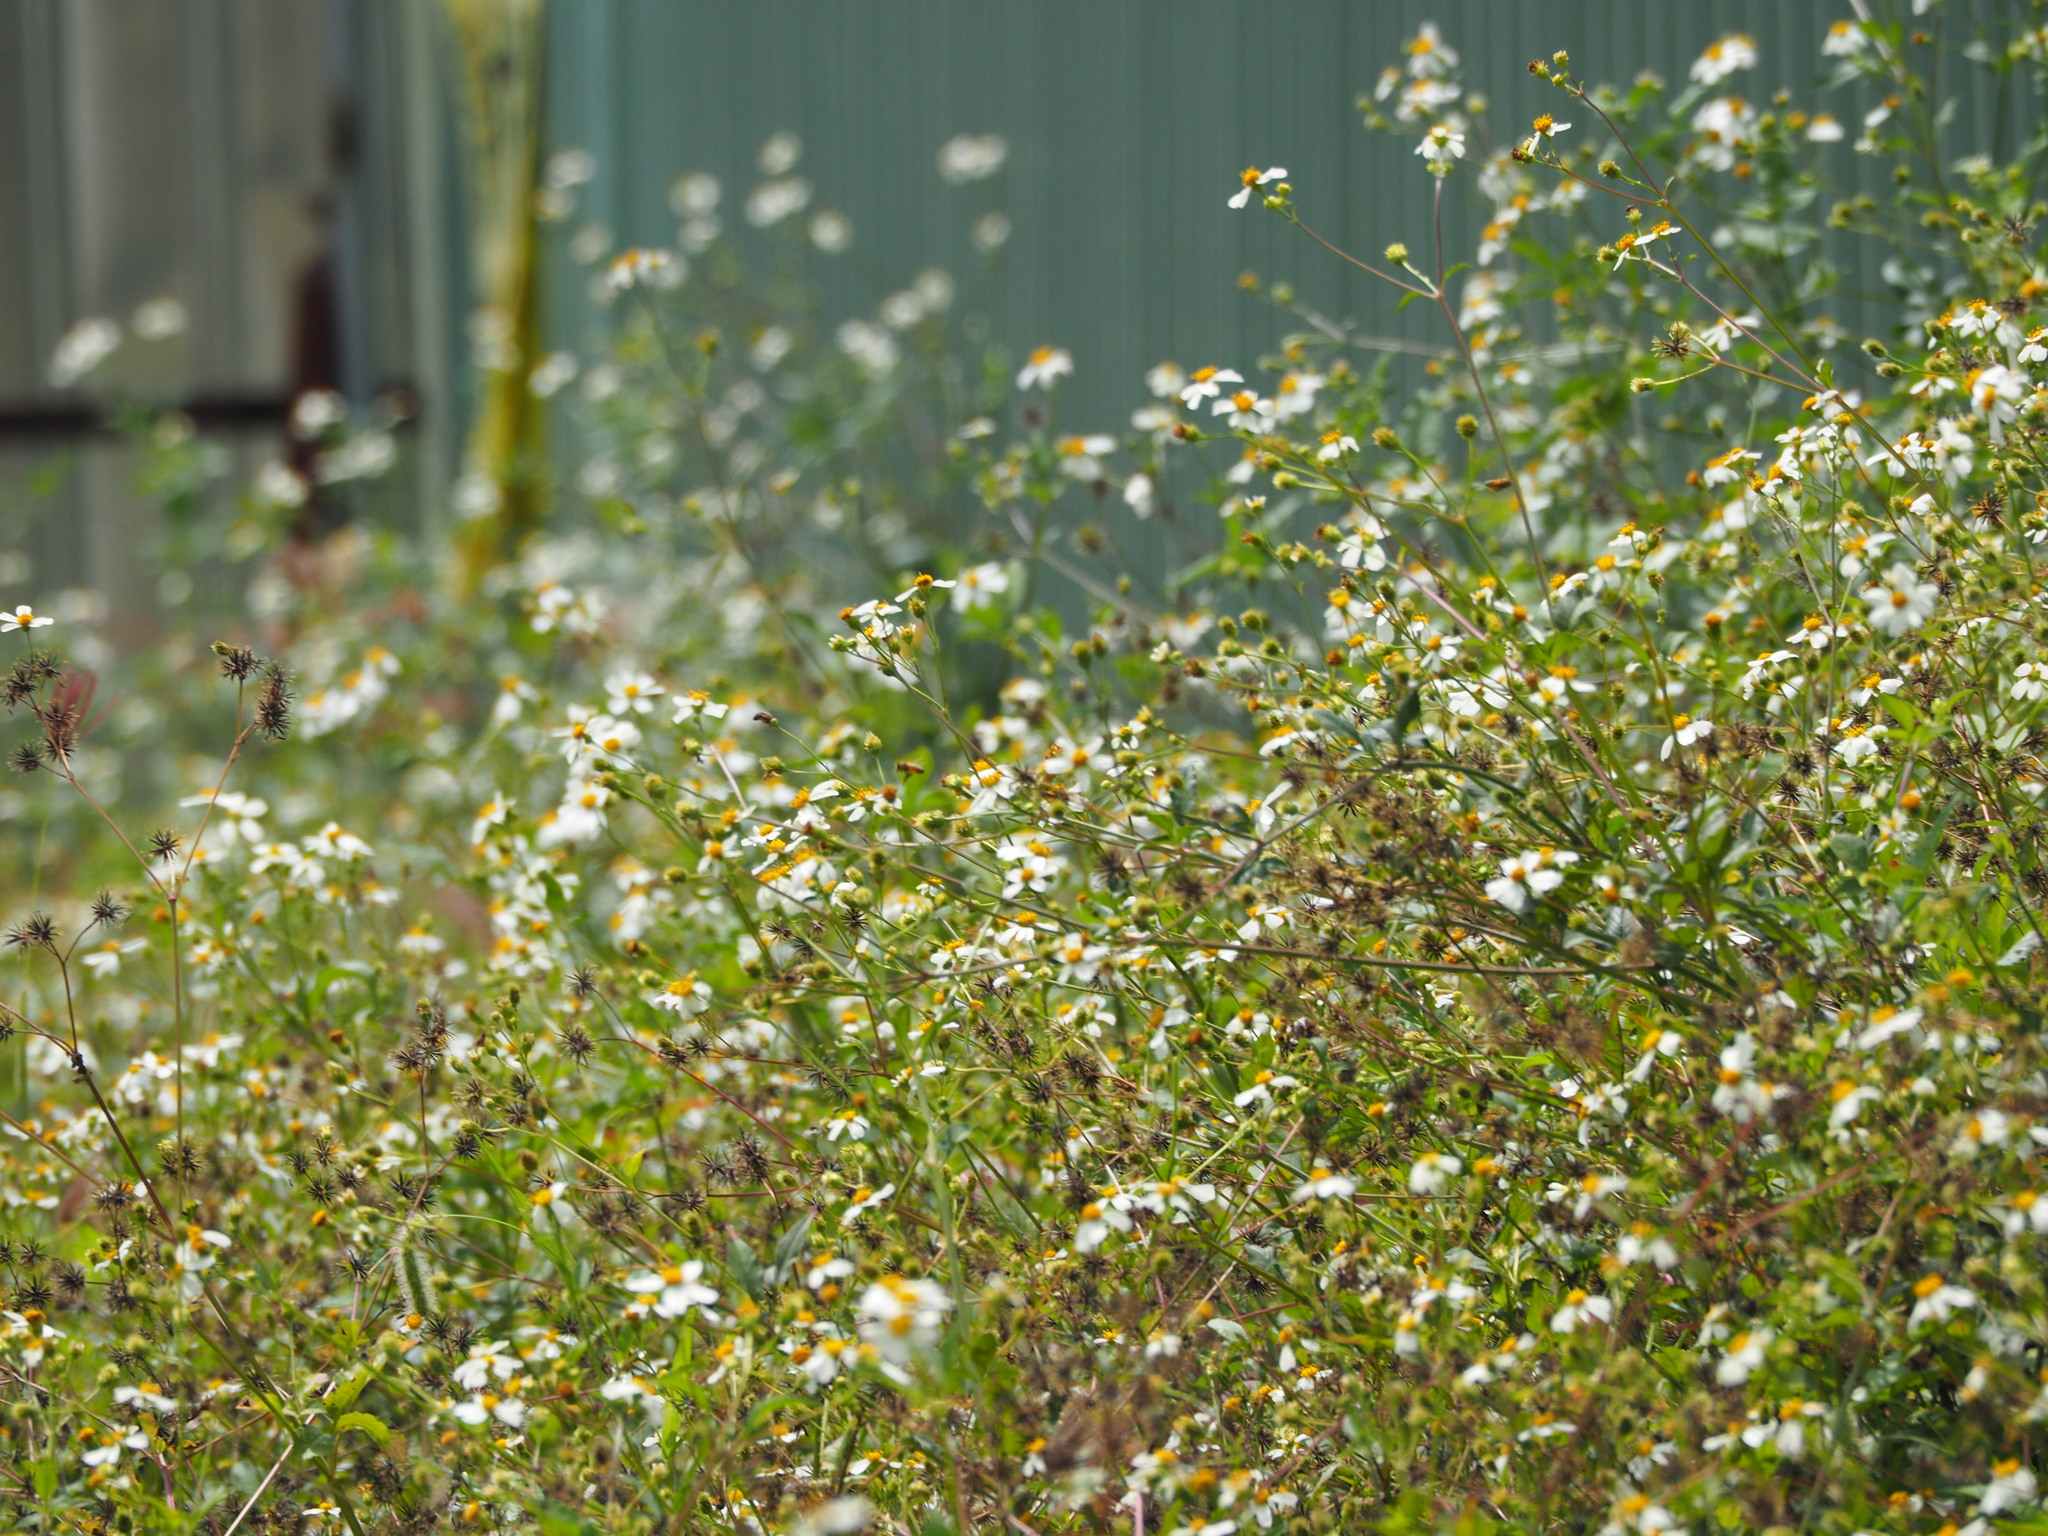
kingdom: Plantae
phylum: Tracheophyta
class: Magnoliopsida
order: Asterales
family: Asteraceae
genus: Bidens
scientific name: Bidens alba
